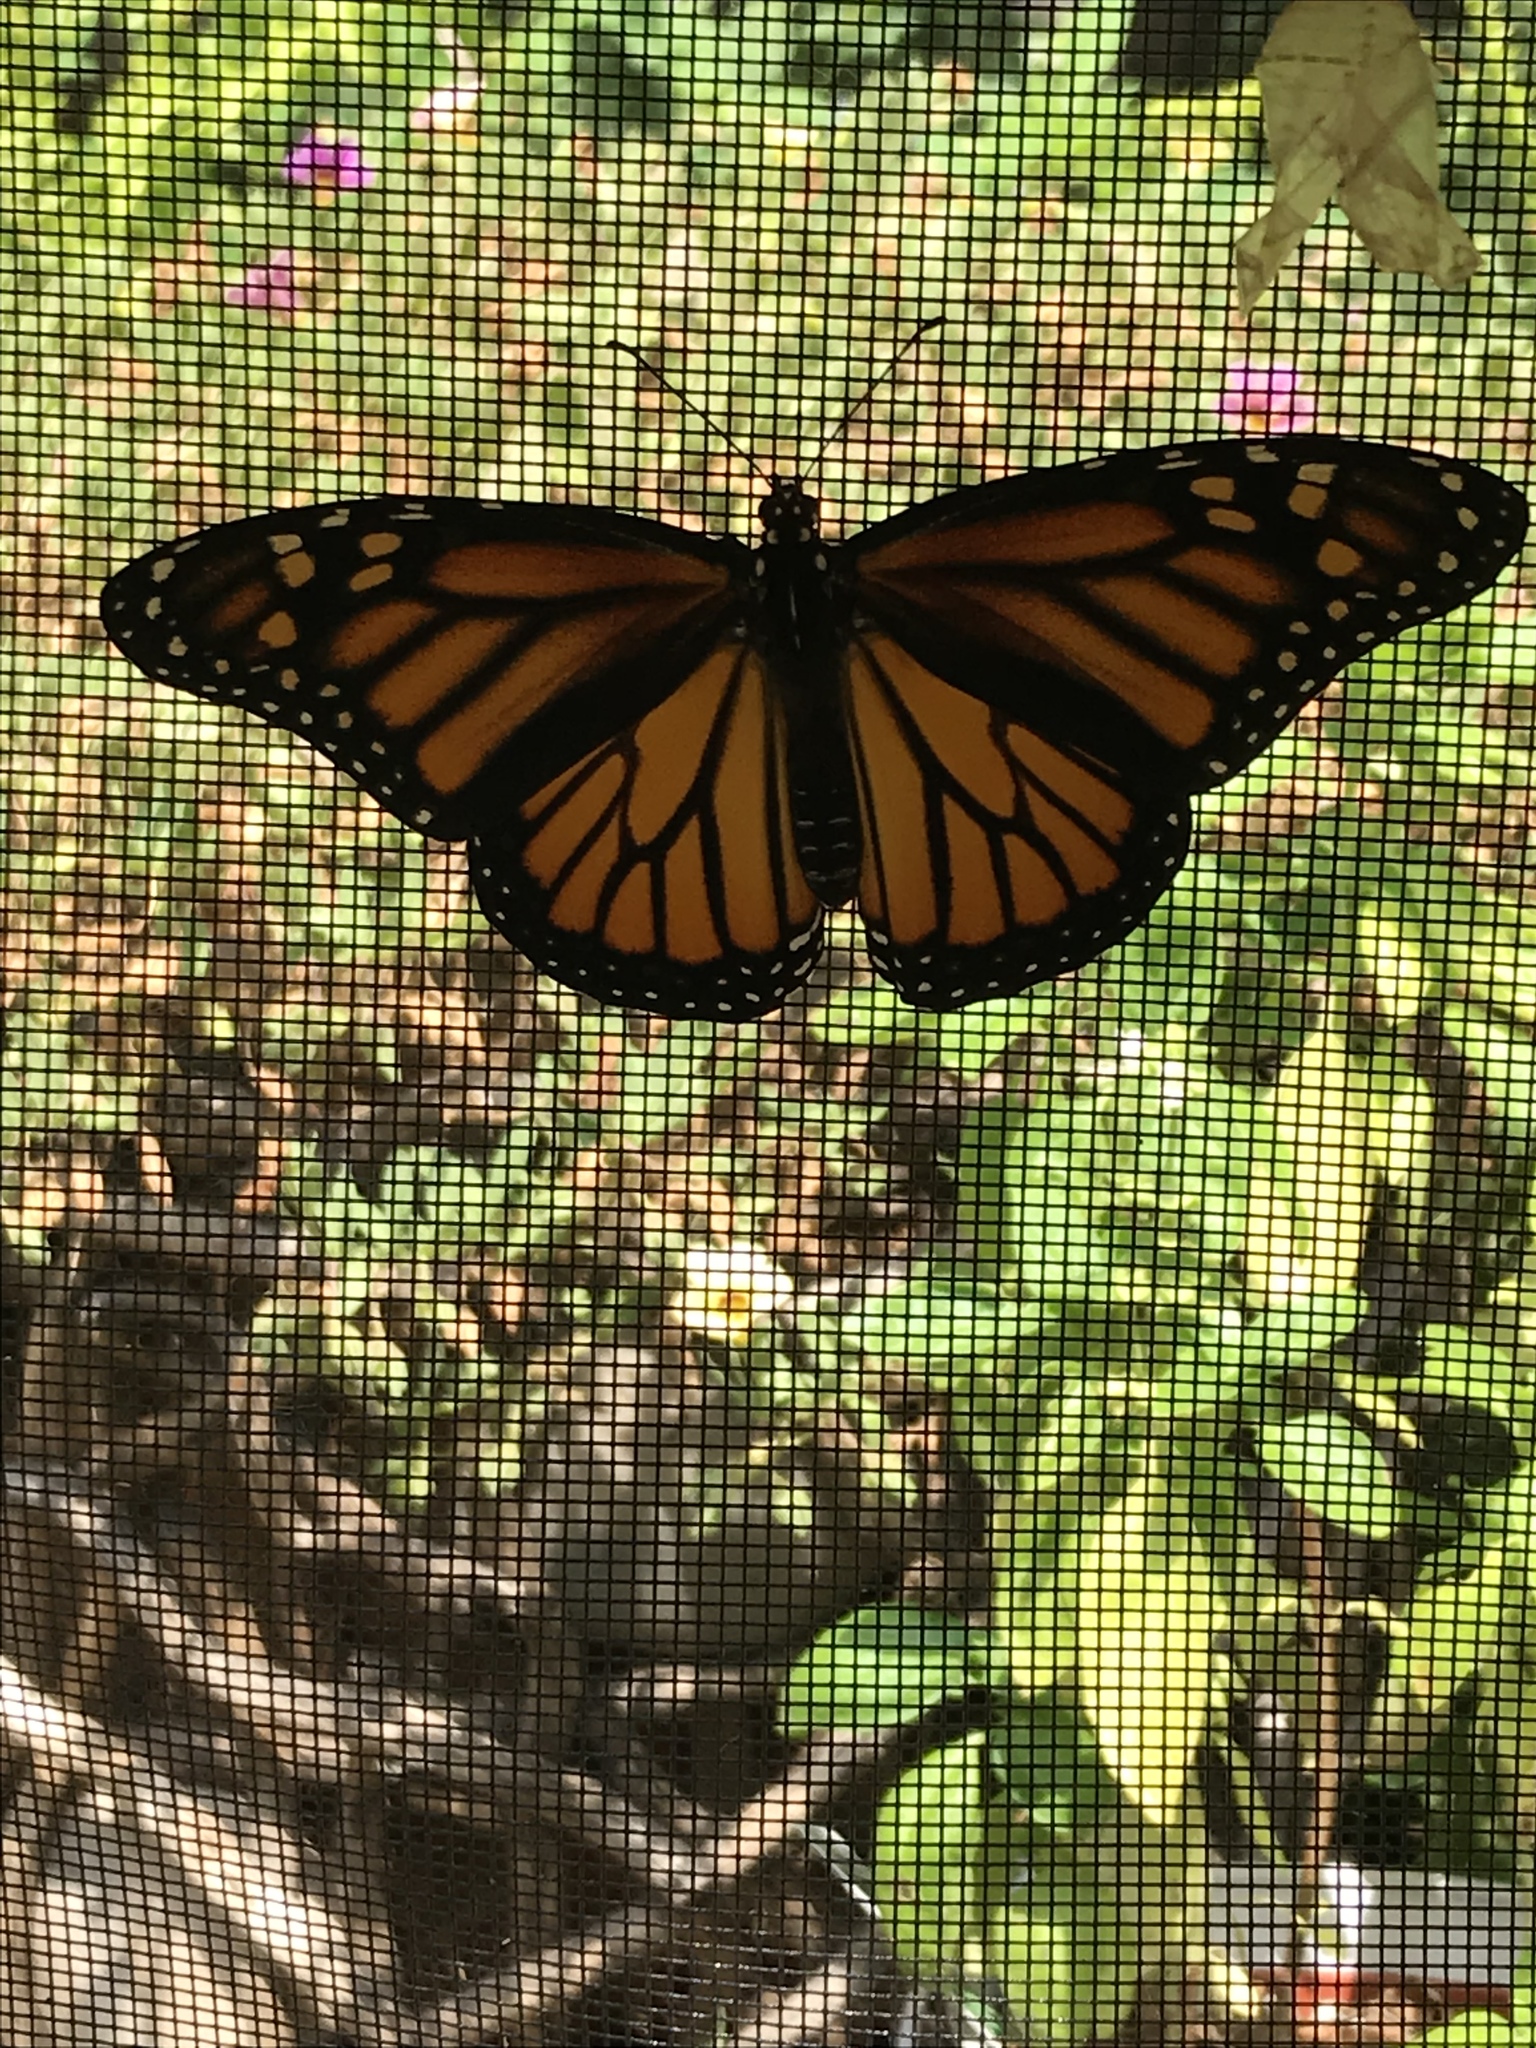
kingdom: Animalia
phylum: Arthropoda
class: Insecta
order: Lepidoptera
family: Nymphalidae
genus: Danaus
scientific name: Danaus plexippus
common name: Monarch
